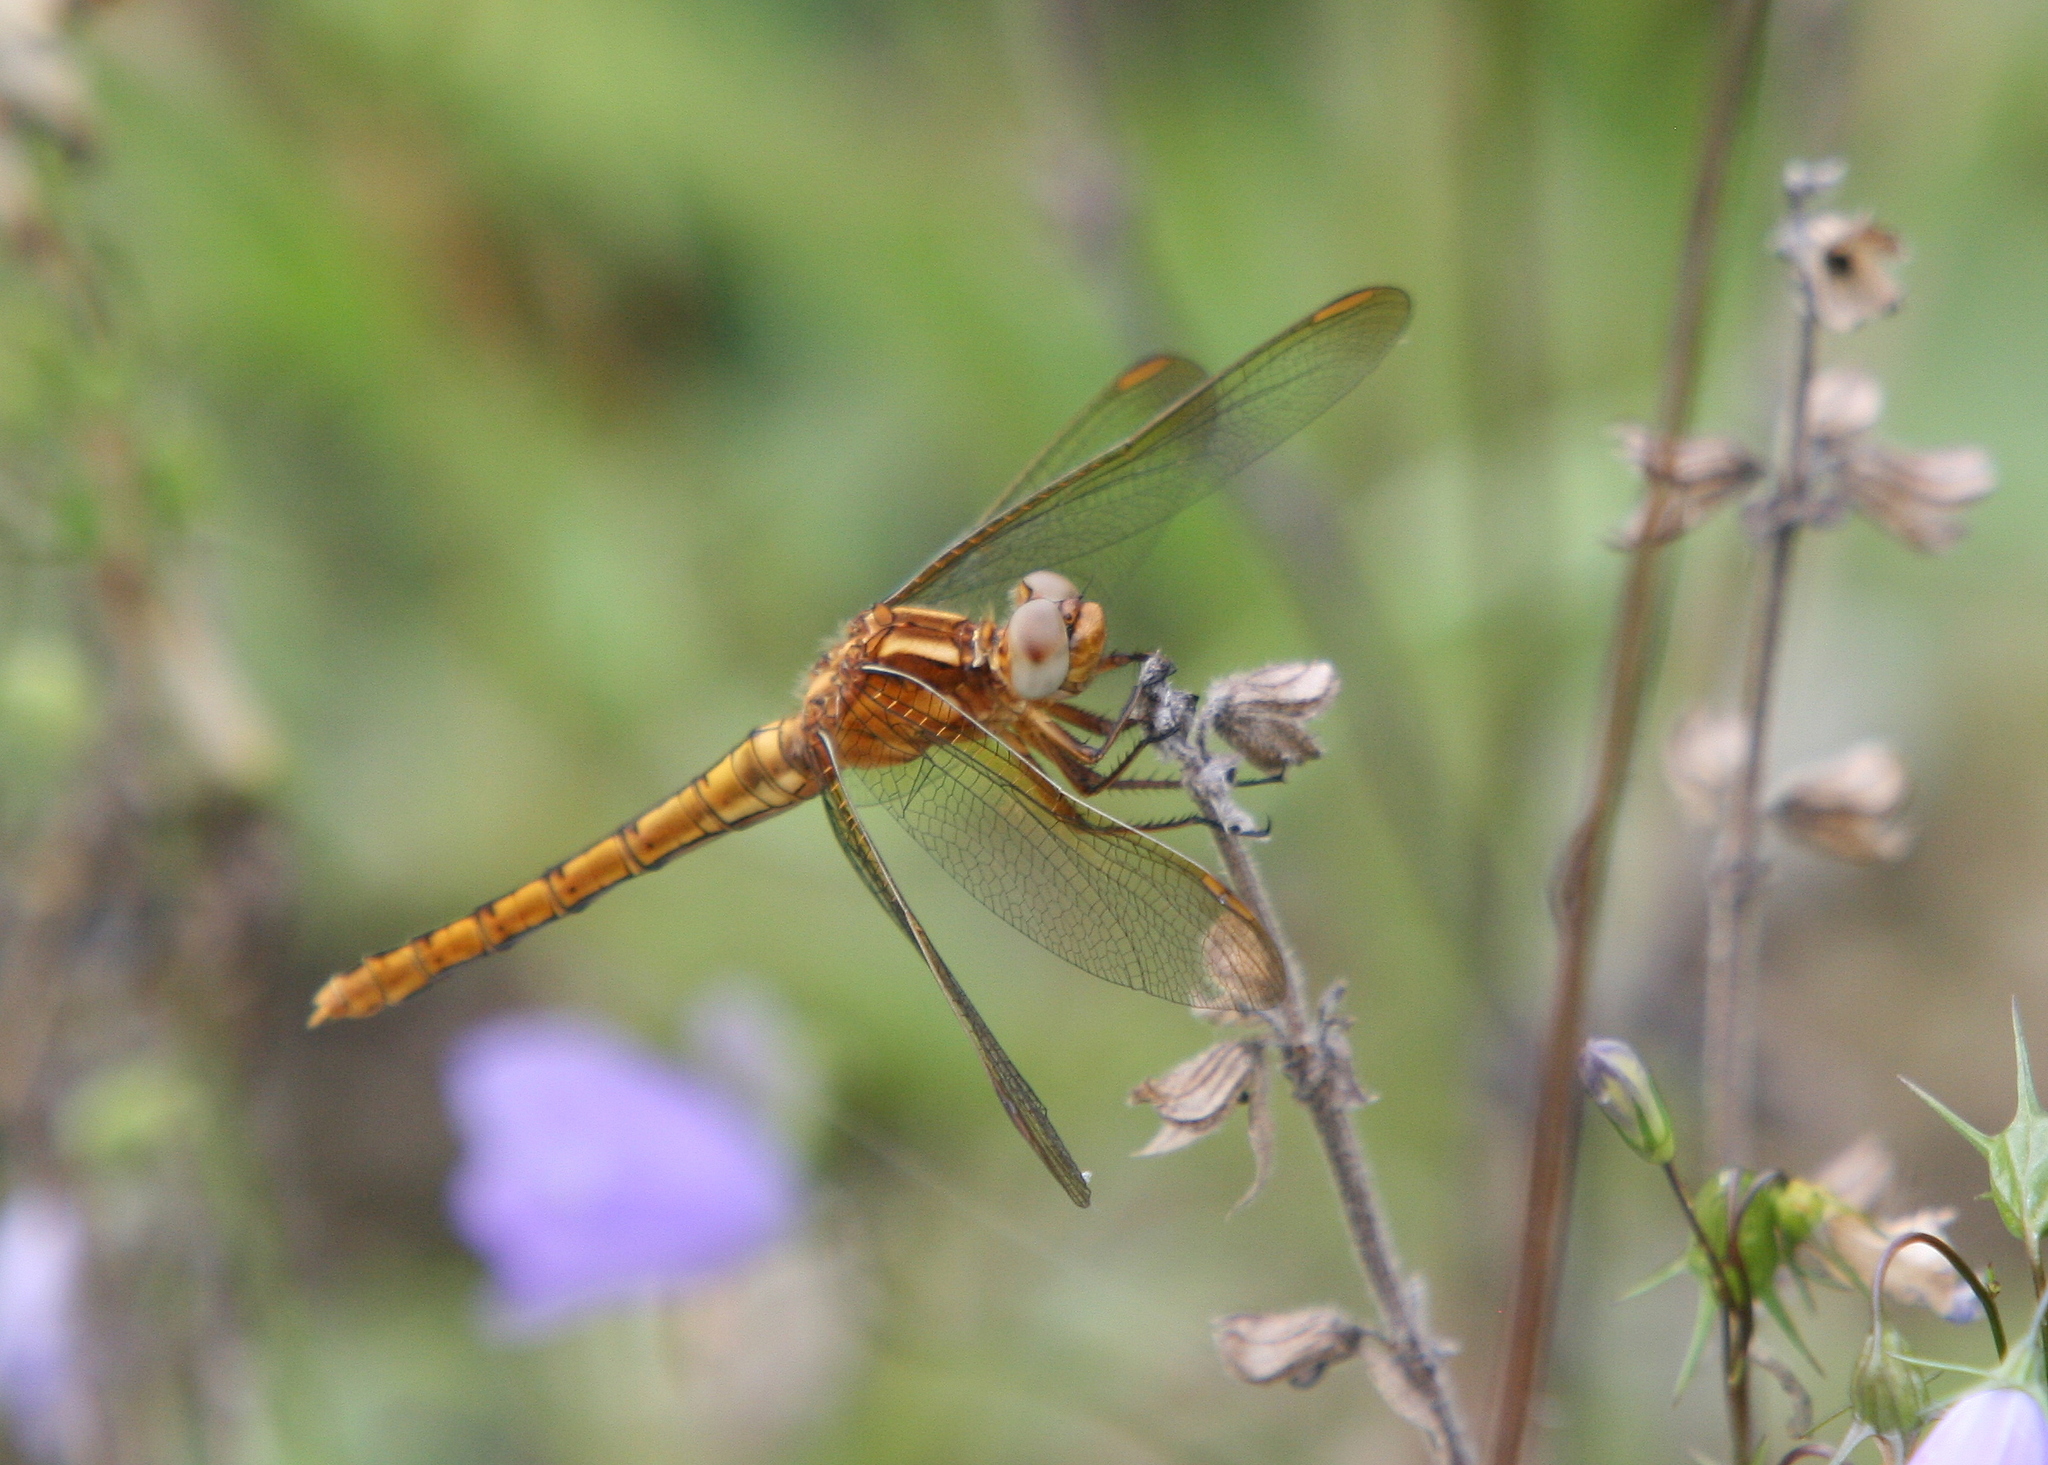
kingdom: Animalia
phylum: Arthropoda
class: Insecta
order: Odonata
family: Libellulidae
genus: Orthetrum
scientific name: Orthetrum coerulescens
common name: Keeled skimmer
